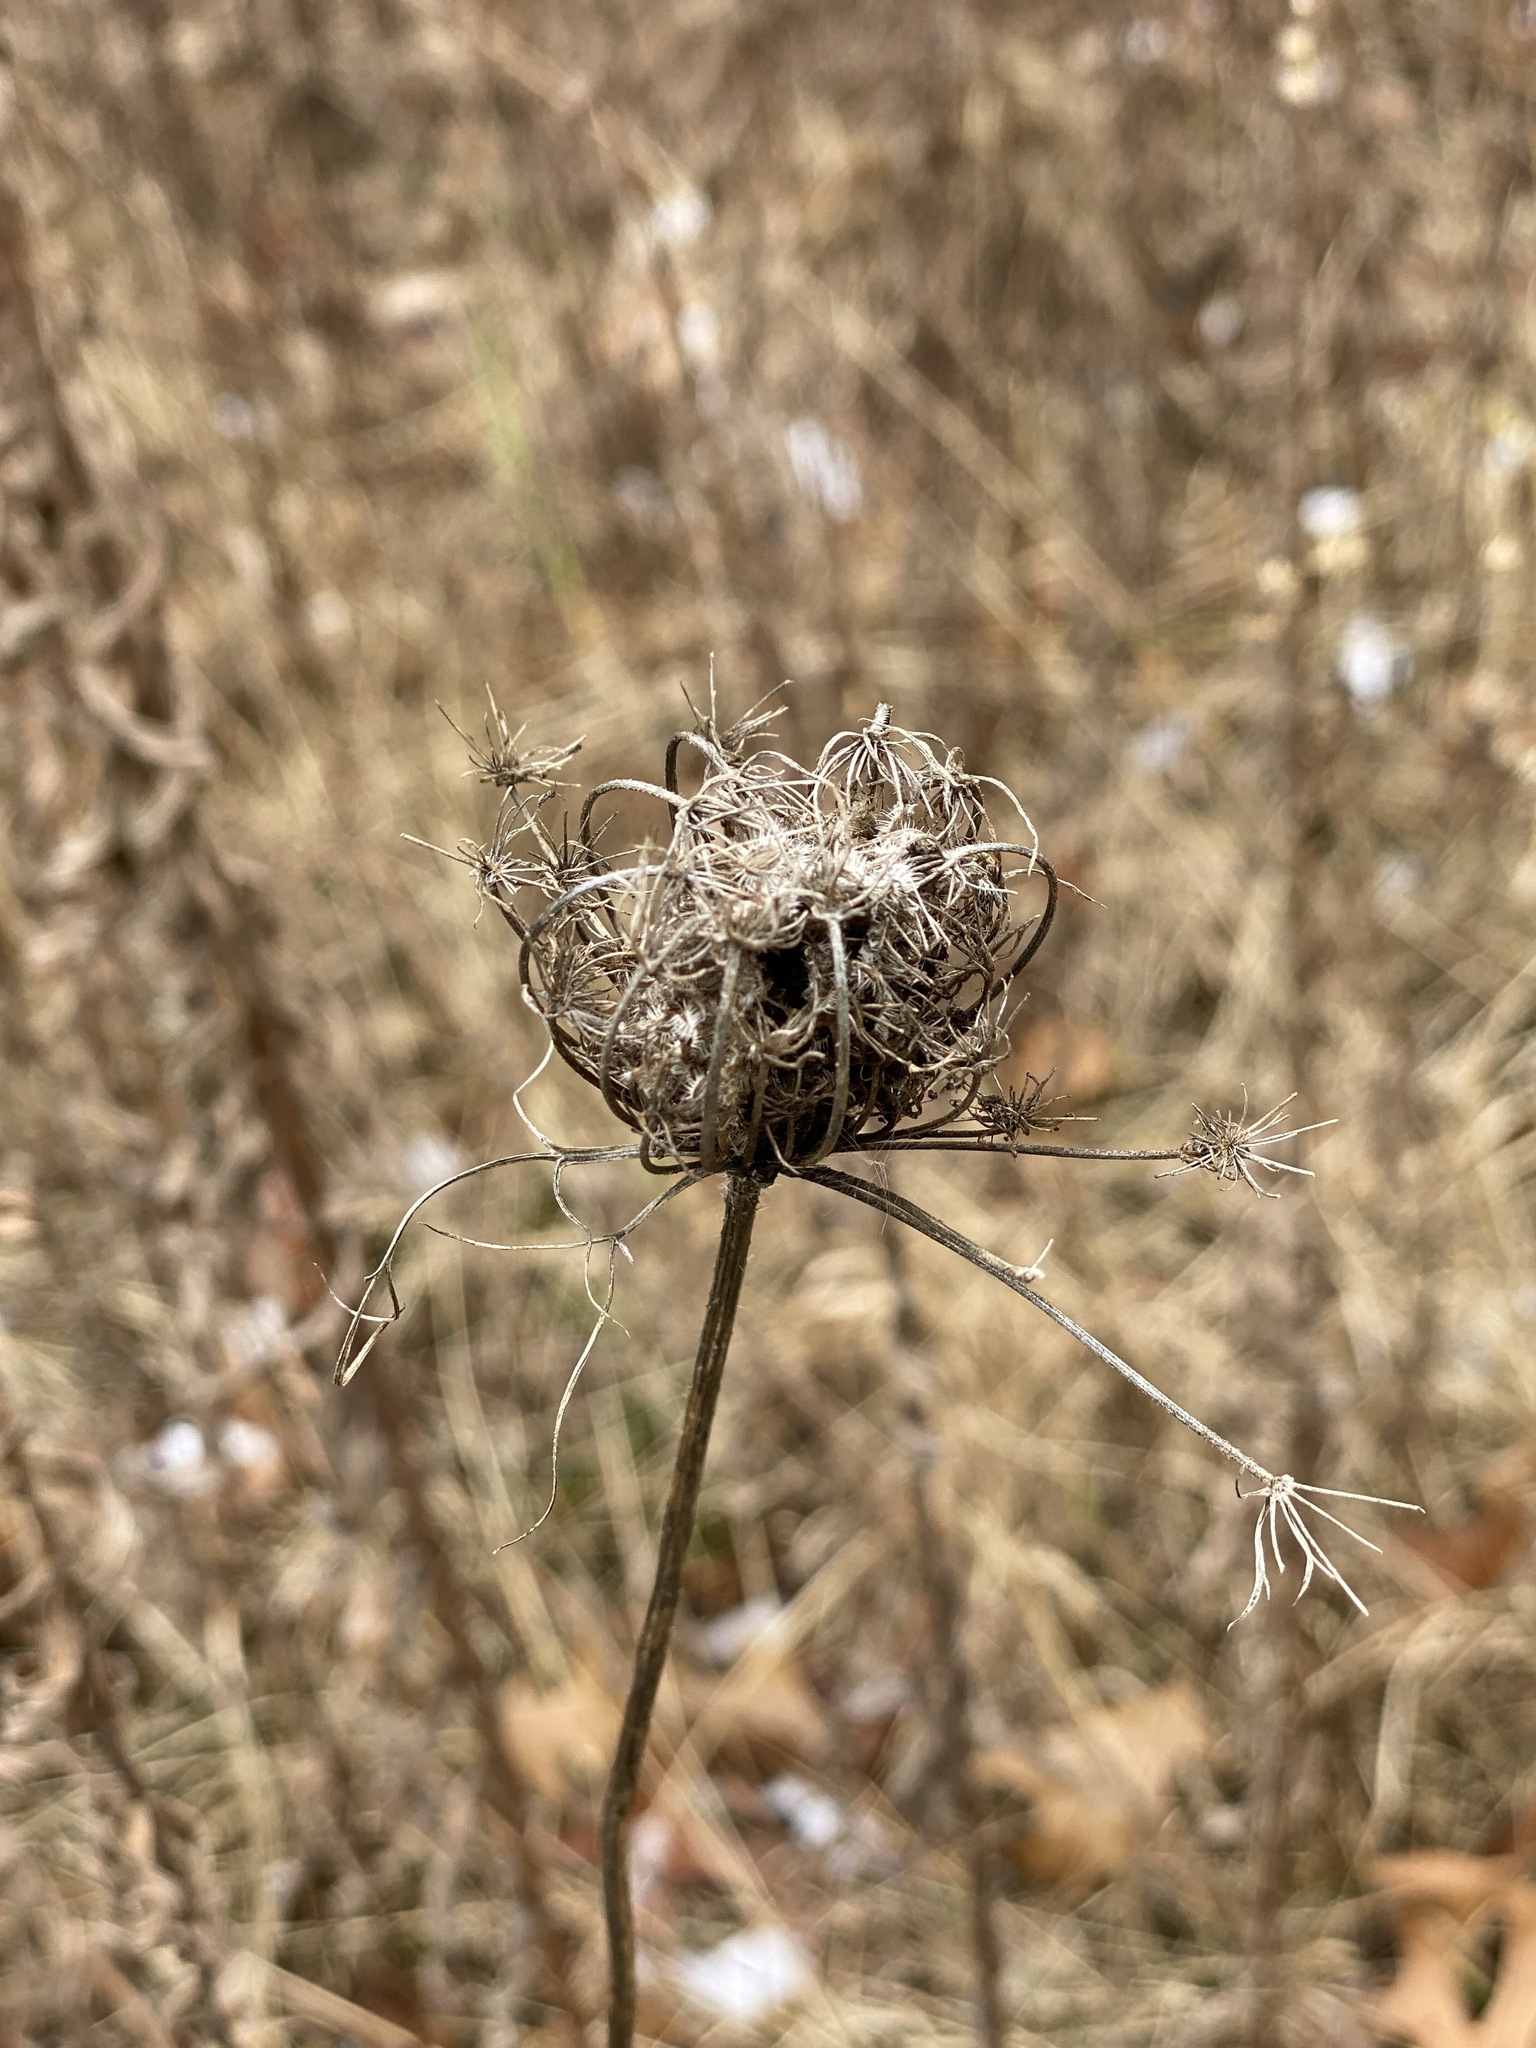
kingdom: Plantae
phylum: Tracheophyta
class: Magnoliopsida
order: Apiales
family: Apiaceae
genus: Daucus
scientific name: Daucus carota
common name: Wild carrot
